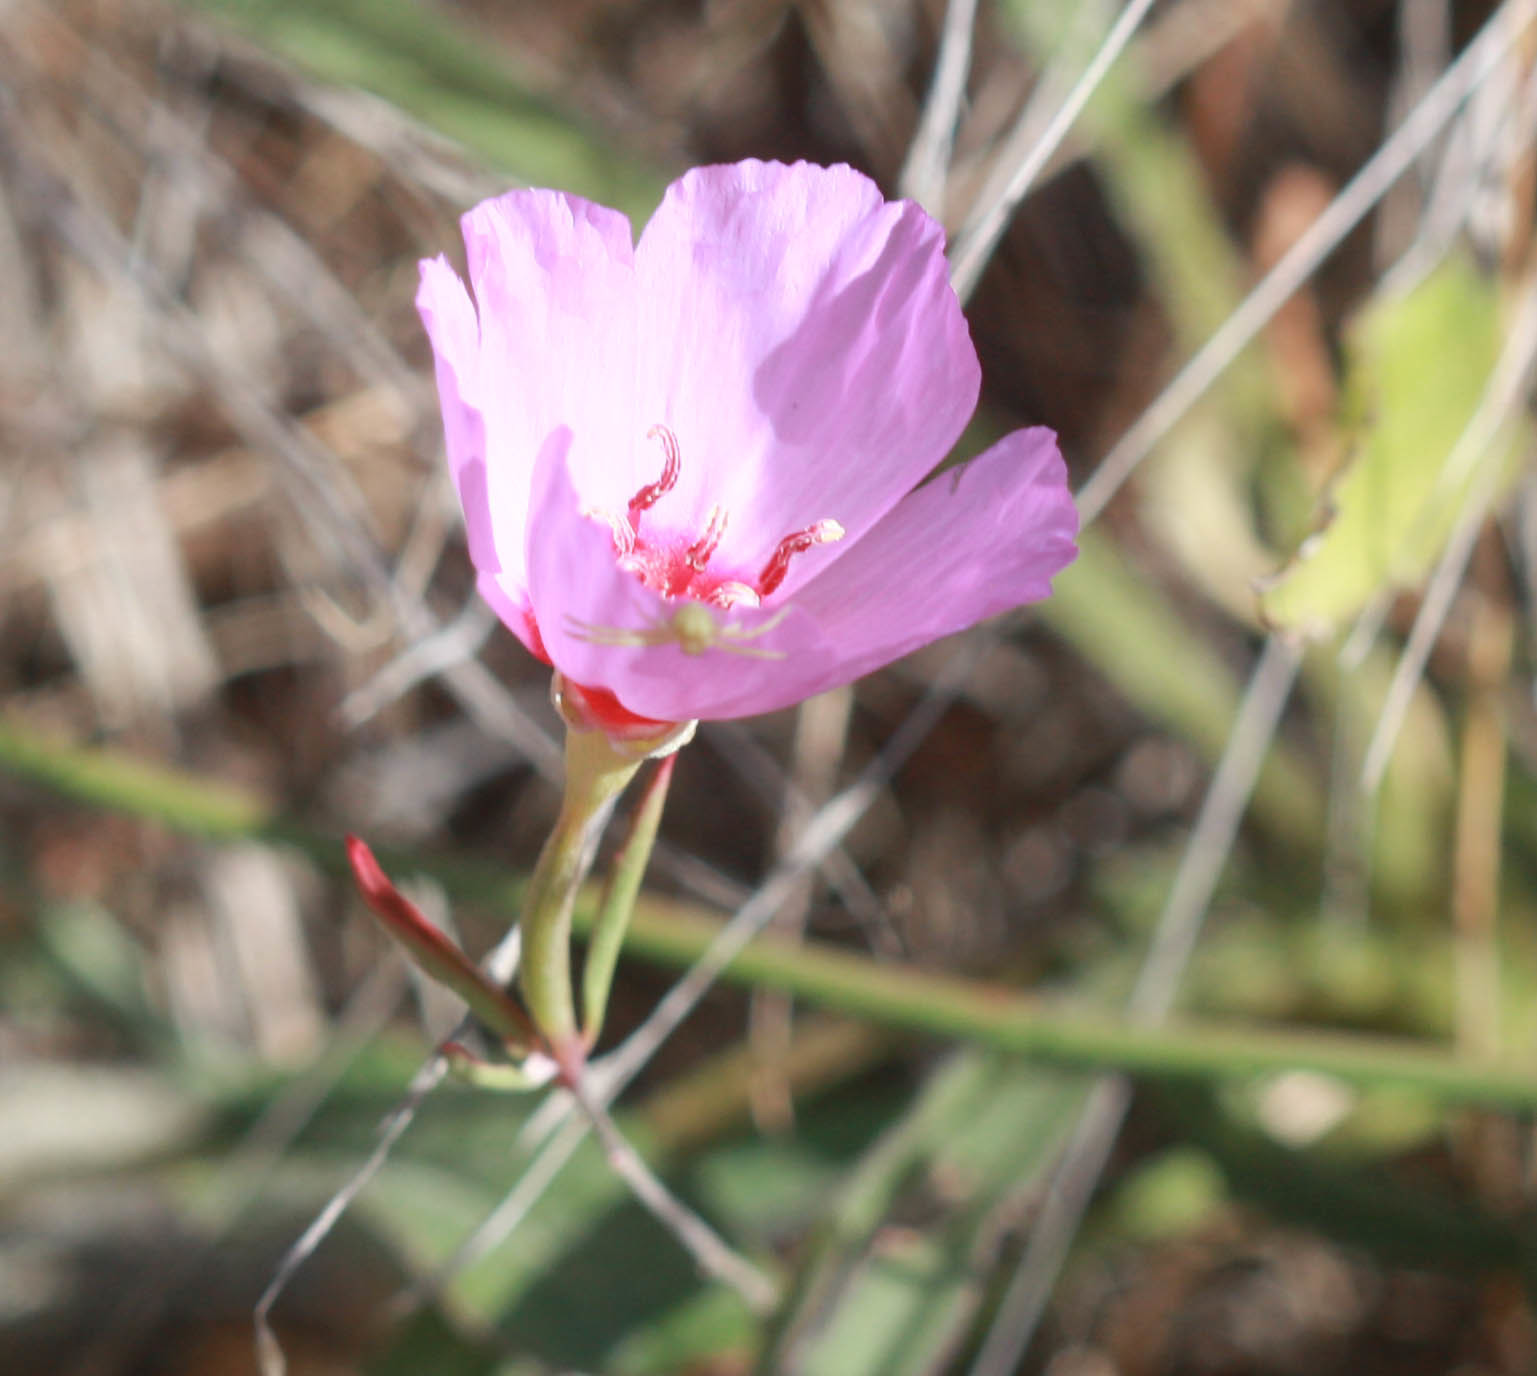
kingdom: Plantae
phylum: Tracheophyta
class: Magnoliopsida
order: Myrtales
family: Onagraceae
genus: Clarkia
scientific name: Clarkia rubicunda
